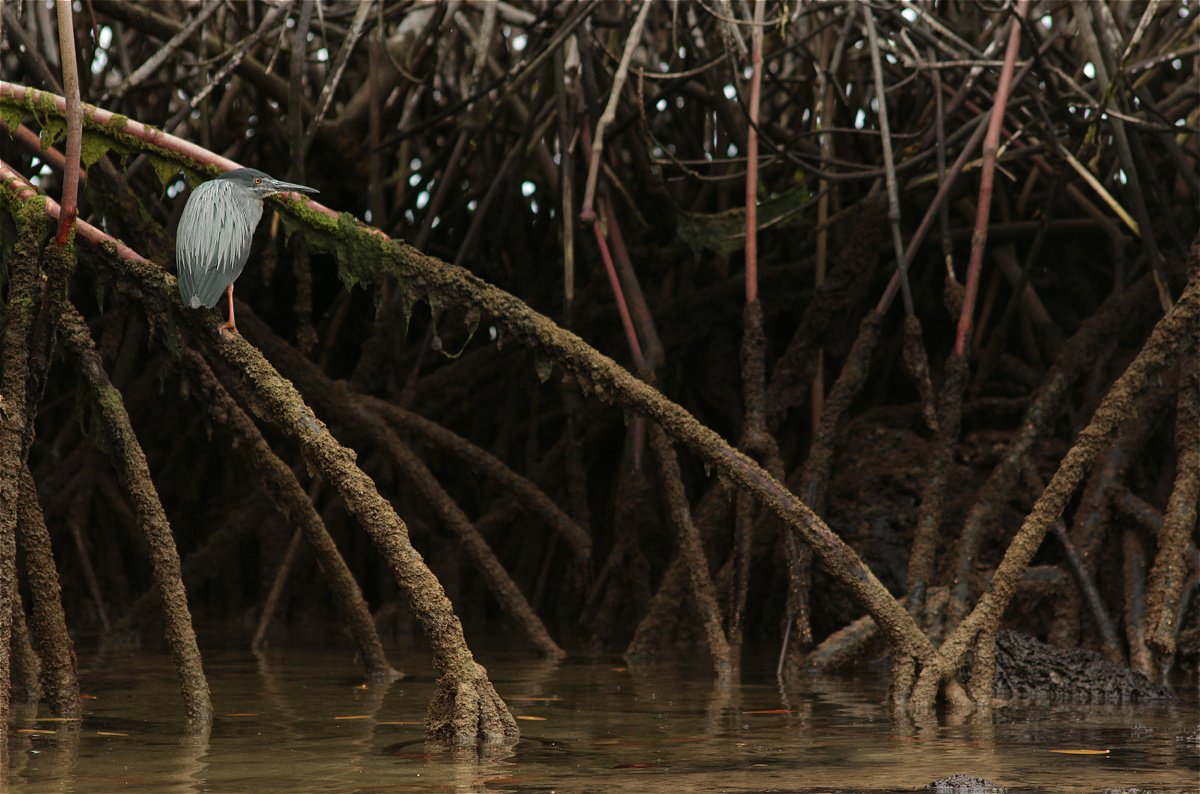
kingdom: Animalia
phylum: Chordata
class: Aves
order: Pelecaniformes
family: Ardeidae
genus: Butorides
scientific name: Butorides striata
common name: Striated heron
